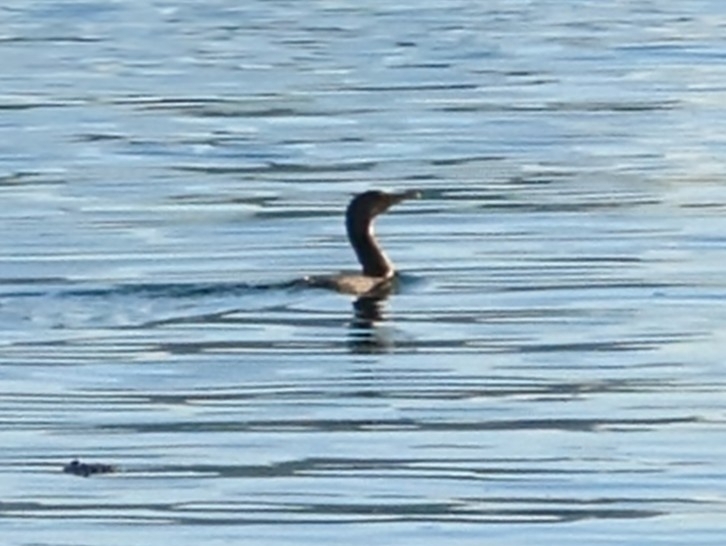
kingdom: Animalia
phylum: Chordata
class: Aves
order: Suliformes
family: Phalacrocoracidae
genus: Phalacrocorax
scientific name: Phalacrocorax auritus
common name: Double-crested cormorant
